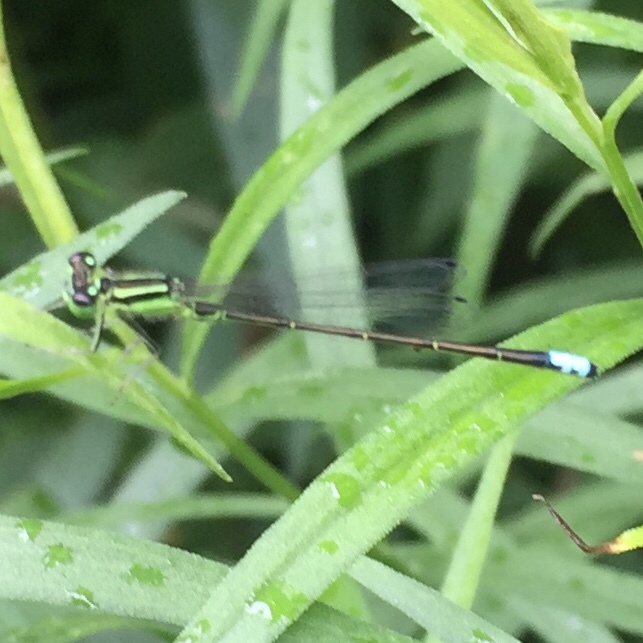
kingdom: Animalia
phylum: Arthropoda
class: Insecta
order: Odonata
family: Coenagrionidae
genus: Ischnura
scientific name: Ischnura verticalis
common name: Eastern forktail
